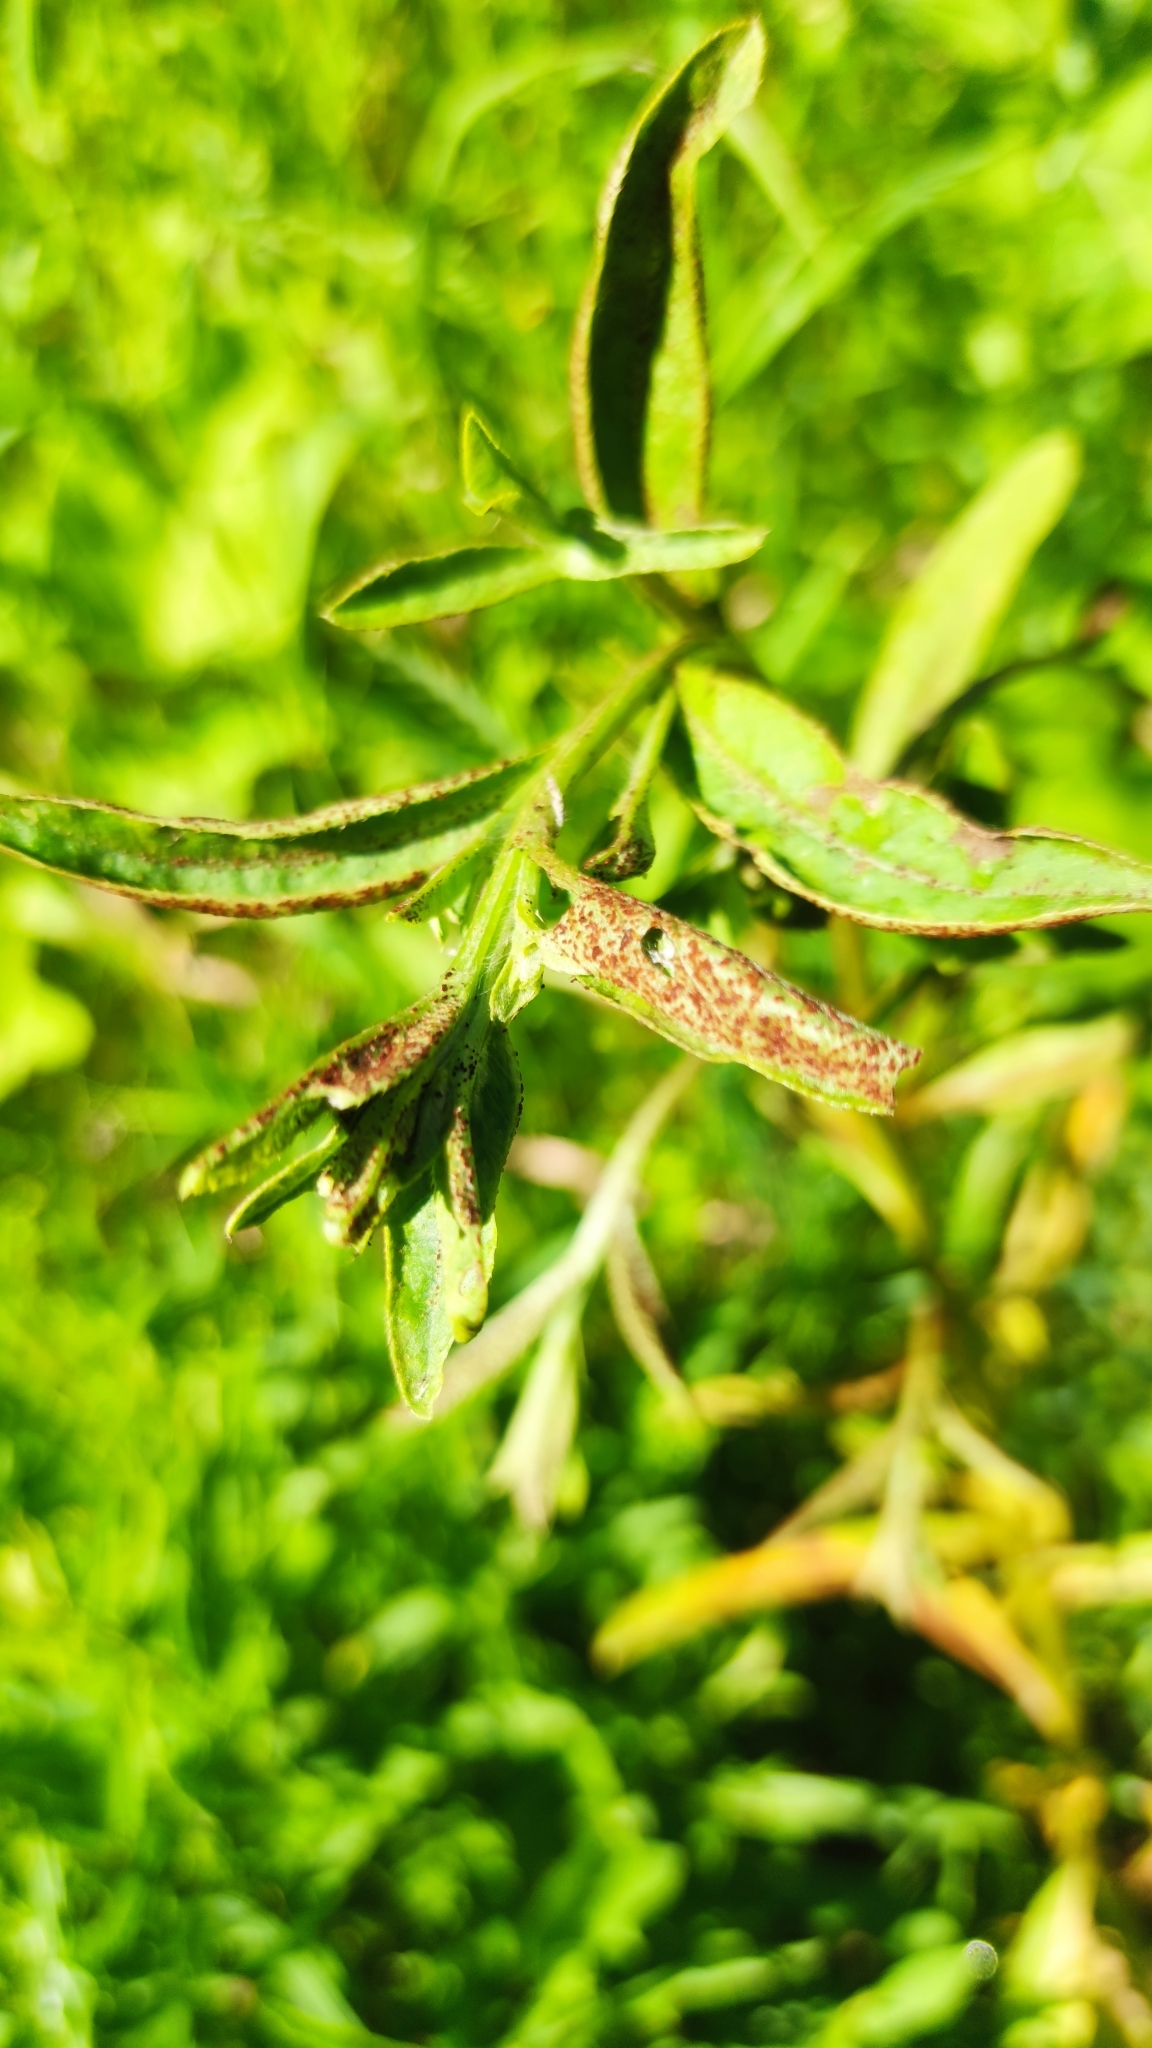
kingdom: Fungi
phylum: Basidiomycota
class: Pucciniomycetes
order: Pucciniales
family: Pucciniaceae
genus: Puccinia
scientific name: Puccinia suaveolens
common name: Thistle rust
